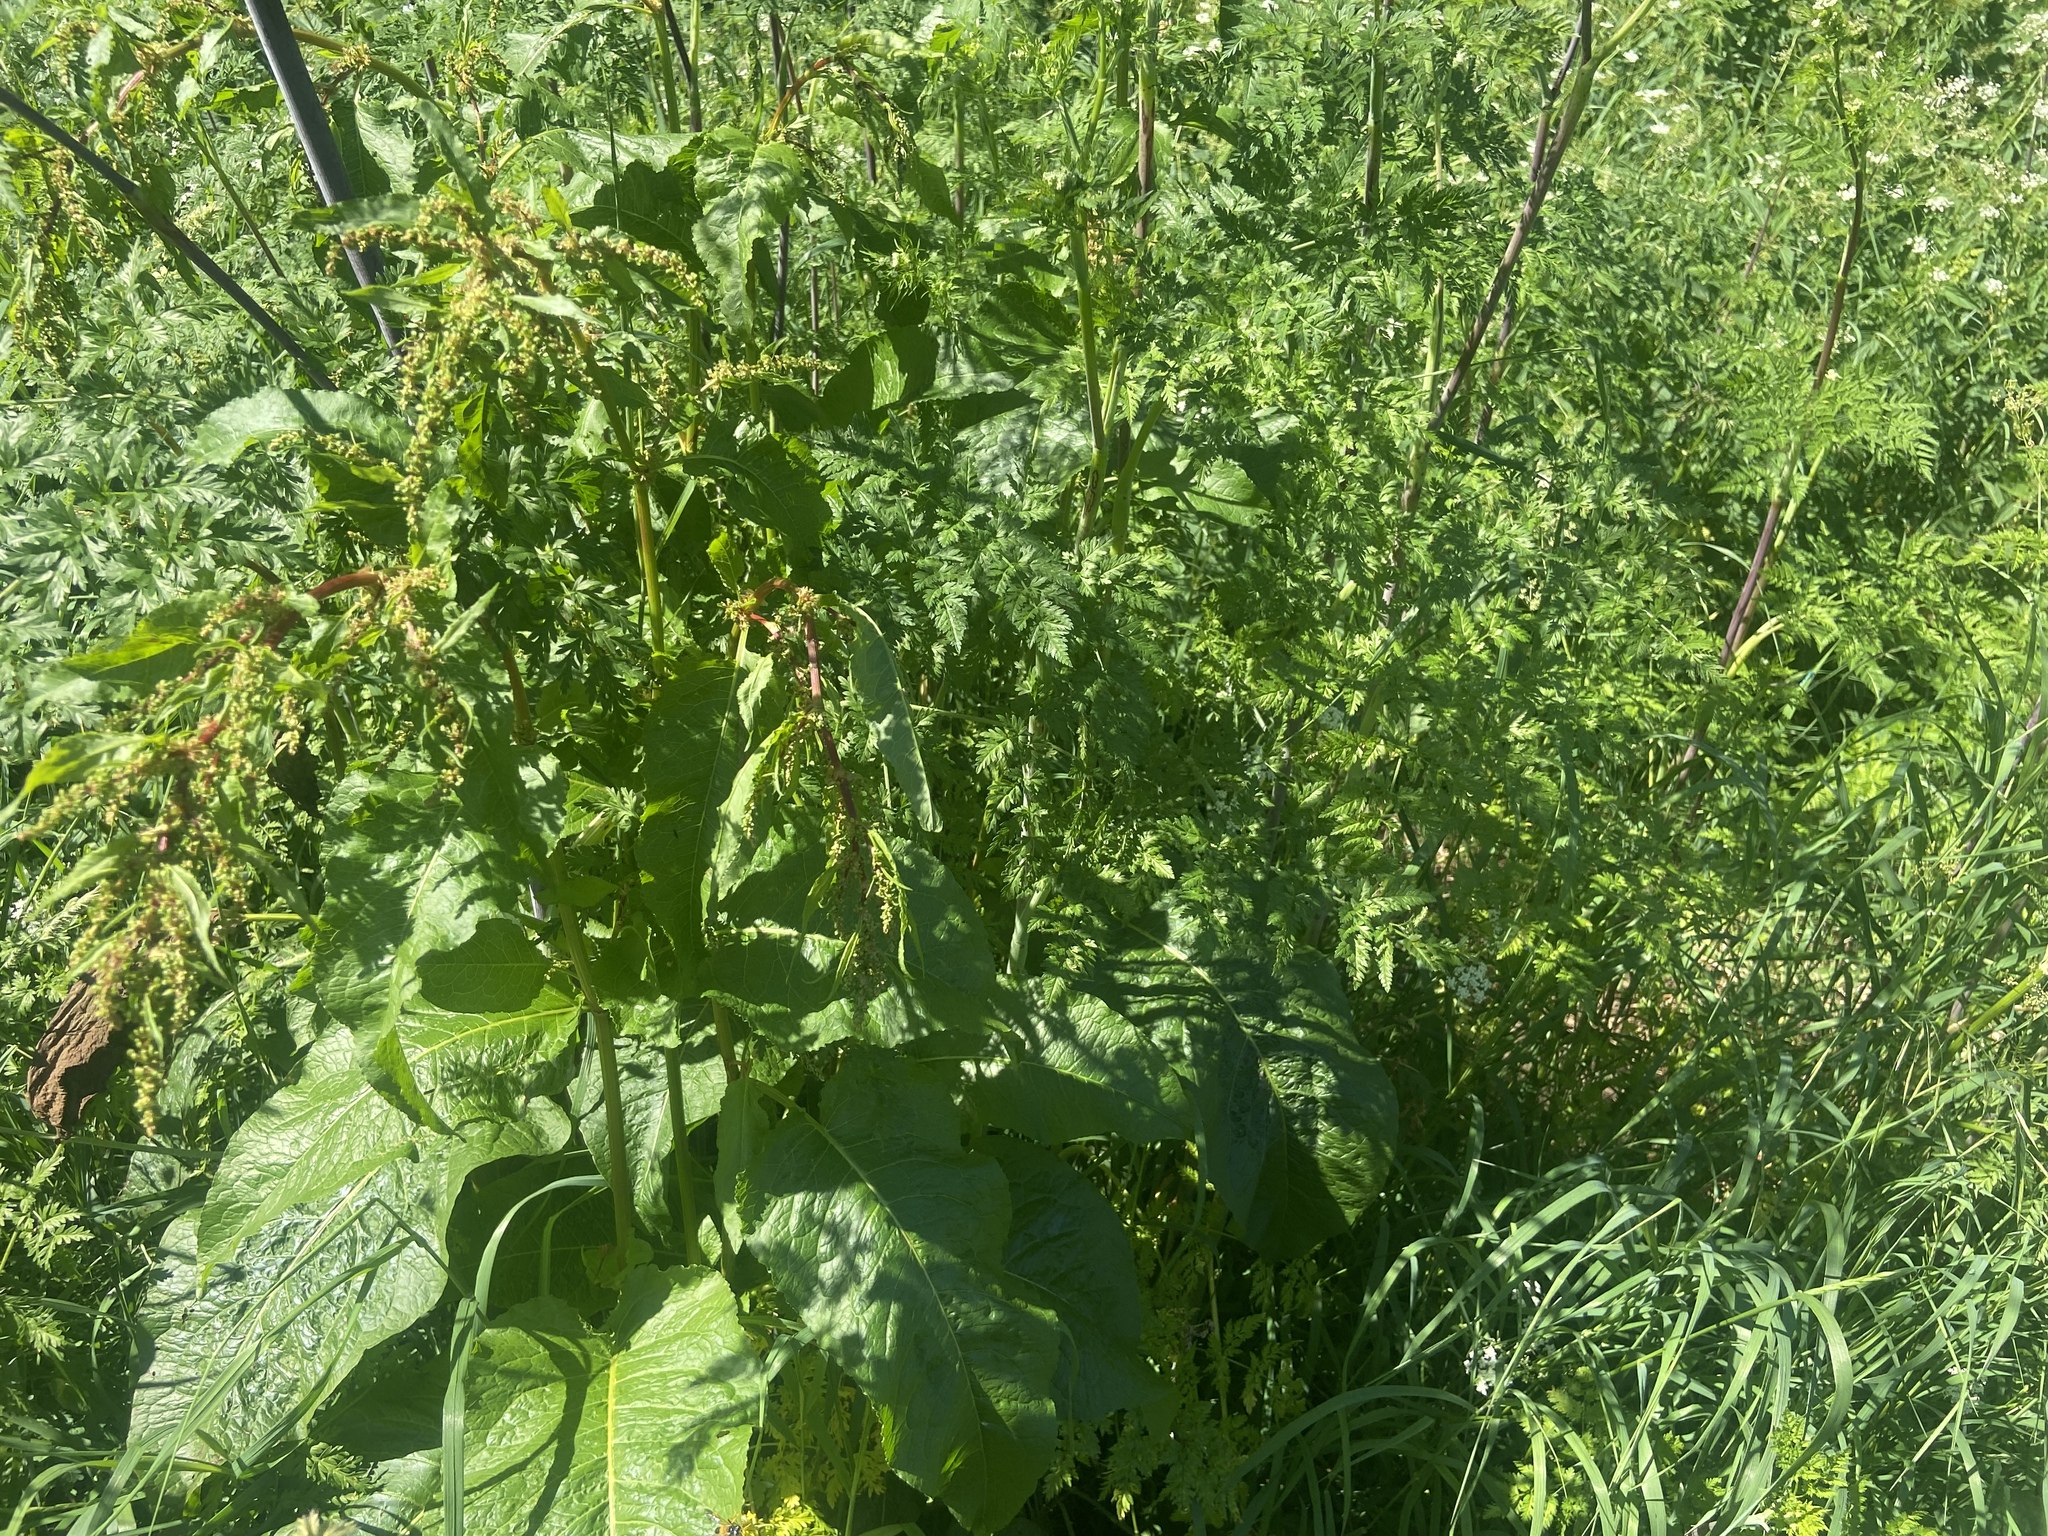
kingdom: Plantae
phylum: Tracheophyta
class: Magnoliopsida
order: Caryophyllales
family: Polygonaceae
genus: Rumex
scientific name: Rumex obtusifolius
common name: Bitter dock
